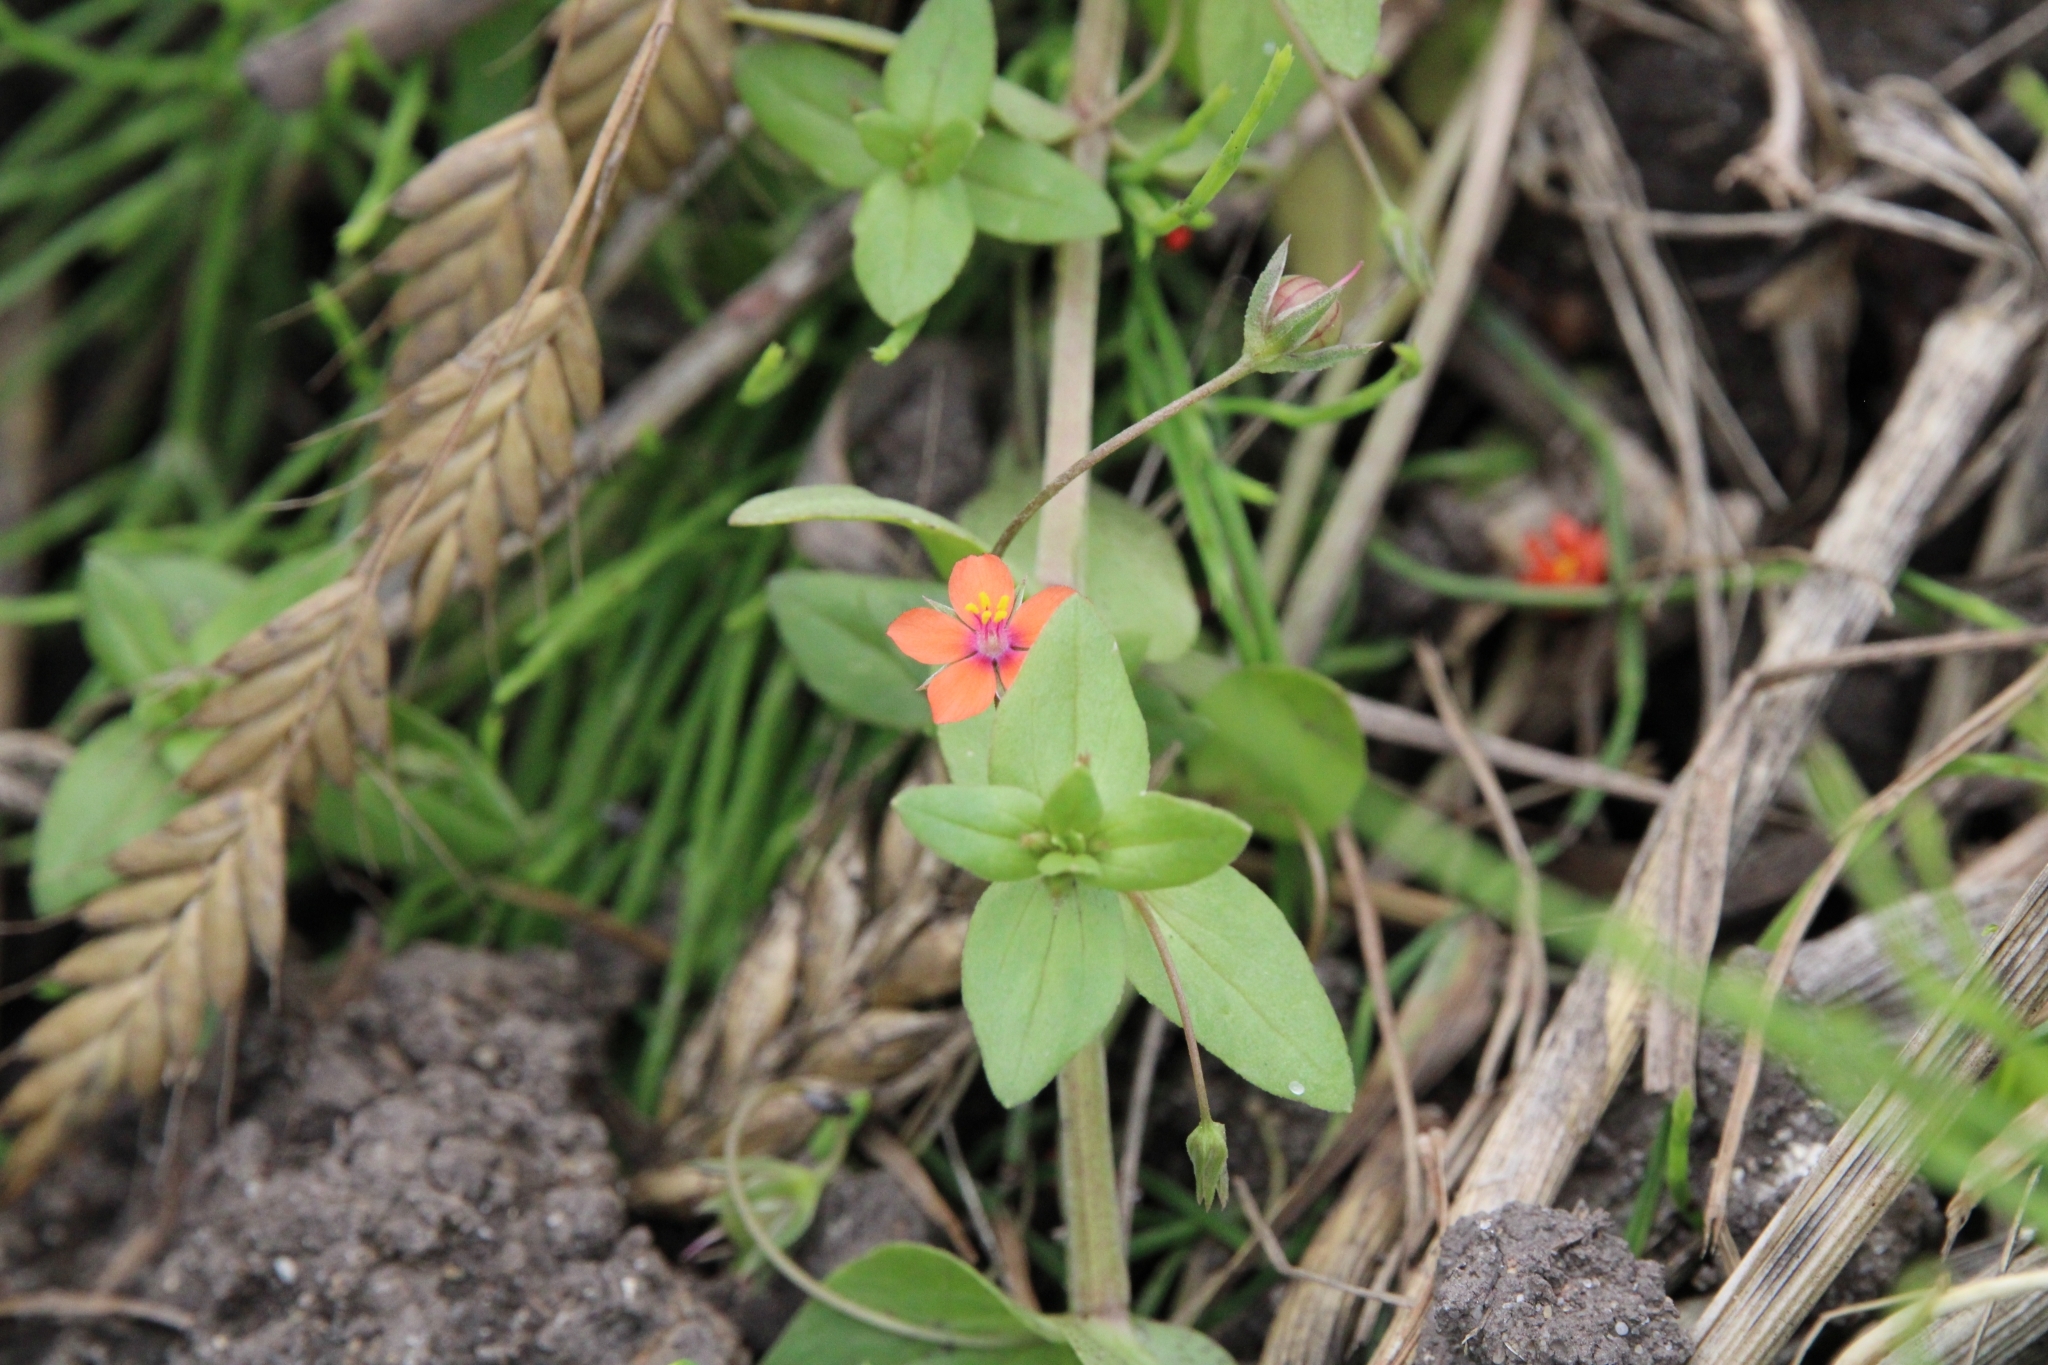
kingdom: Plantae
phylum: Tracheophyta
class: Magnoliopsida
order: Ericales
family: Primulaceae
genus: Lysimachia
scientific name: Lysimachia arvensis
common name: Scarlet pimpernel
